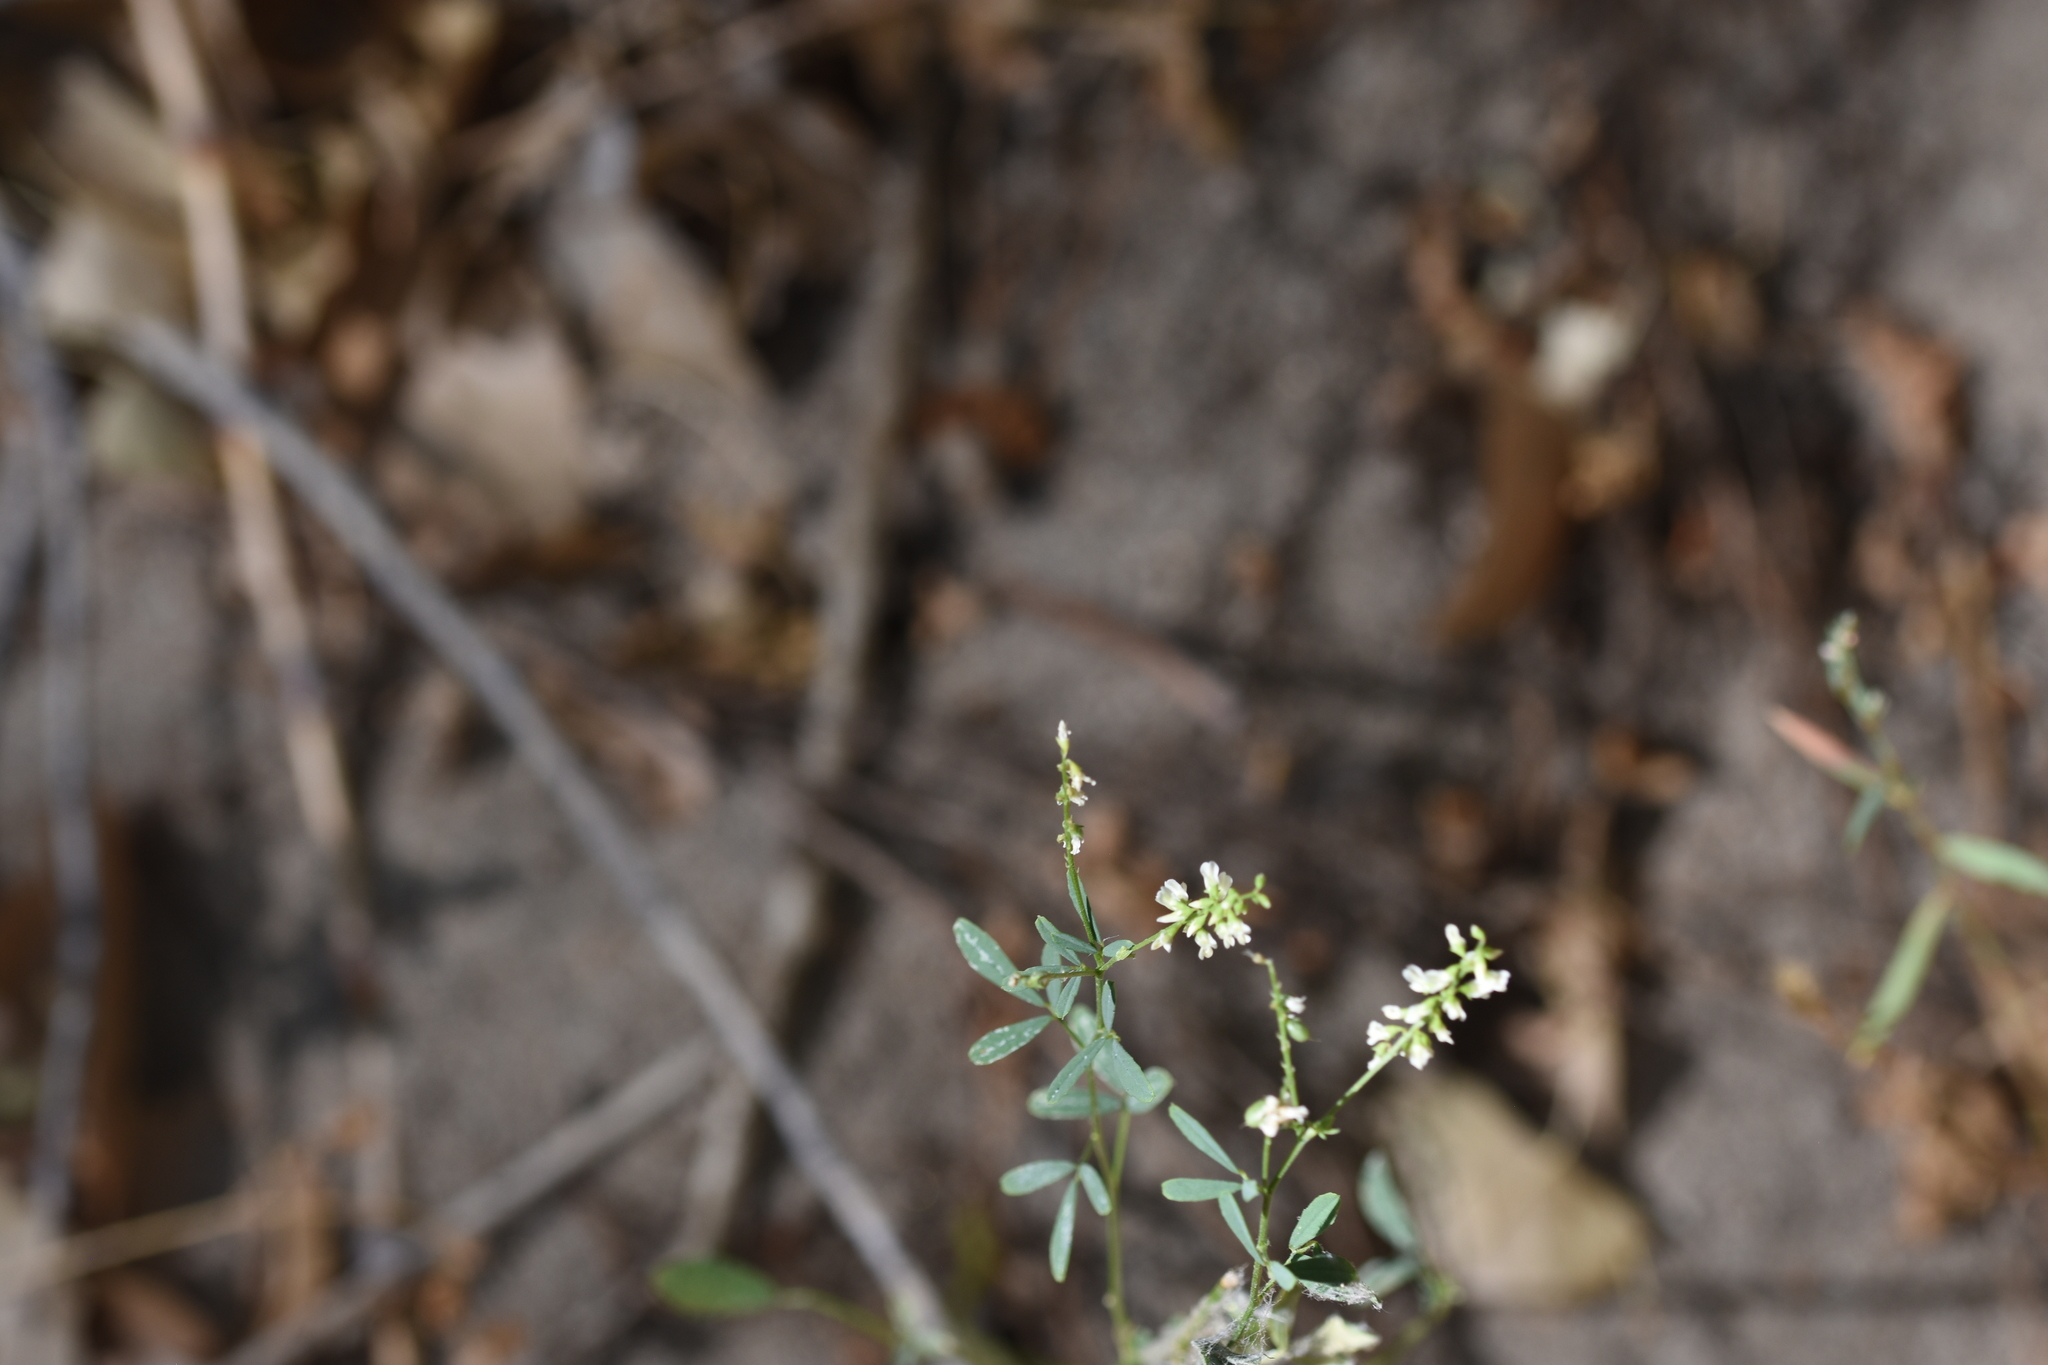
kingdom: Plantae
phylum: Tracheophyta
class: Magnoliopsida
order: Fabales
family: Fabaceae
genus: Melilotus
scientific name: Melilotus albus
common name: White melilot
